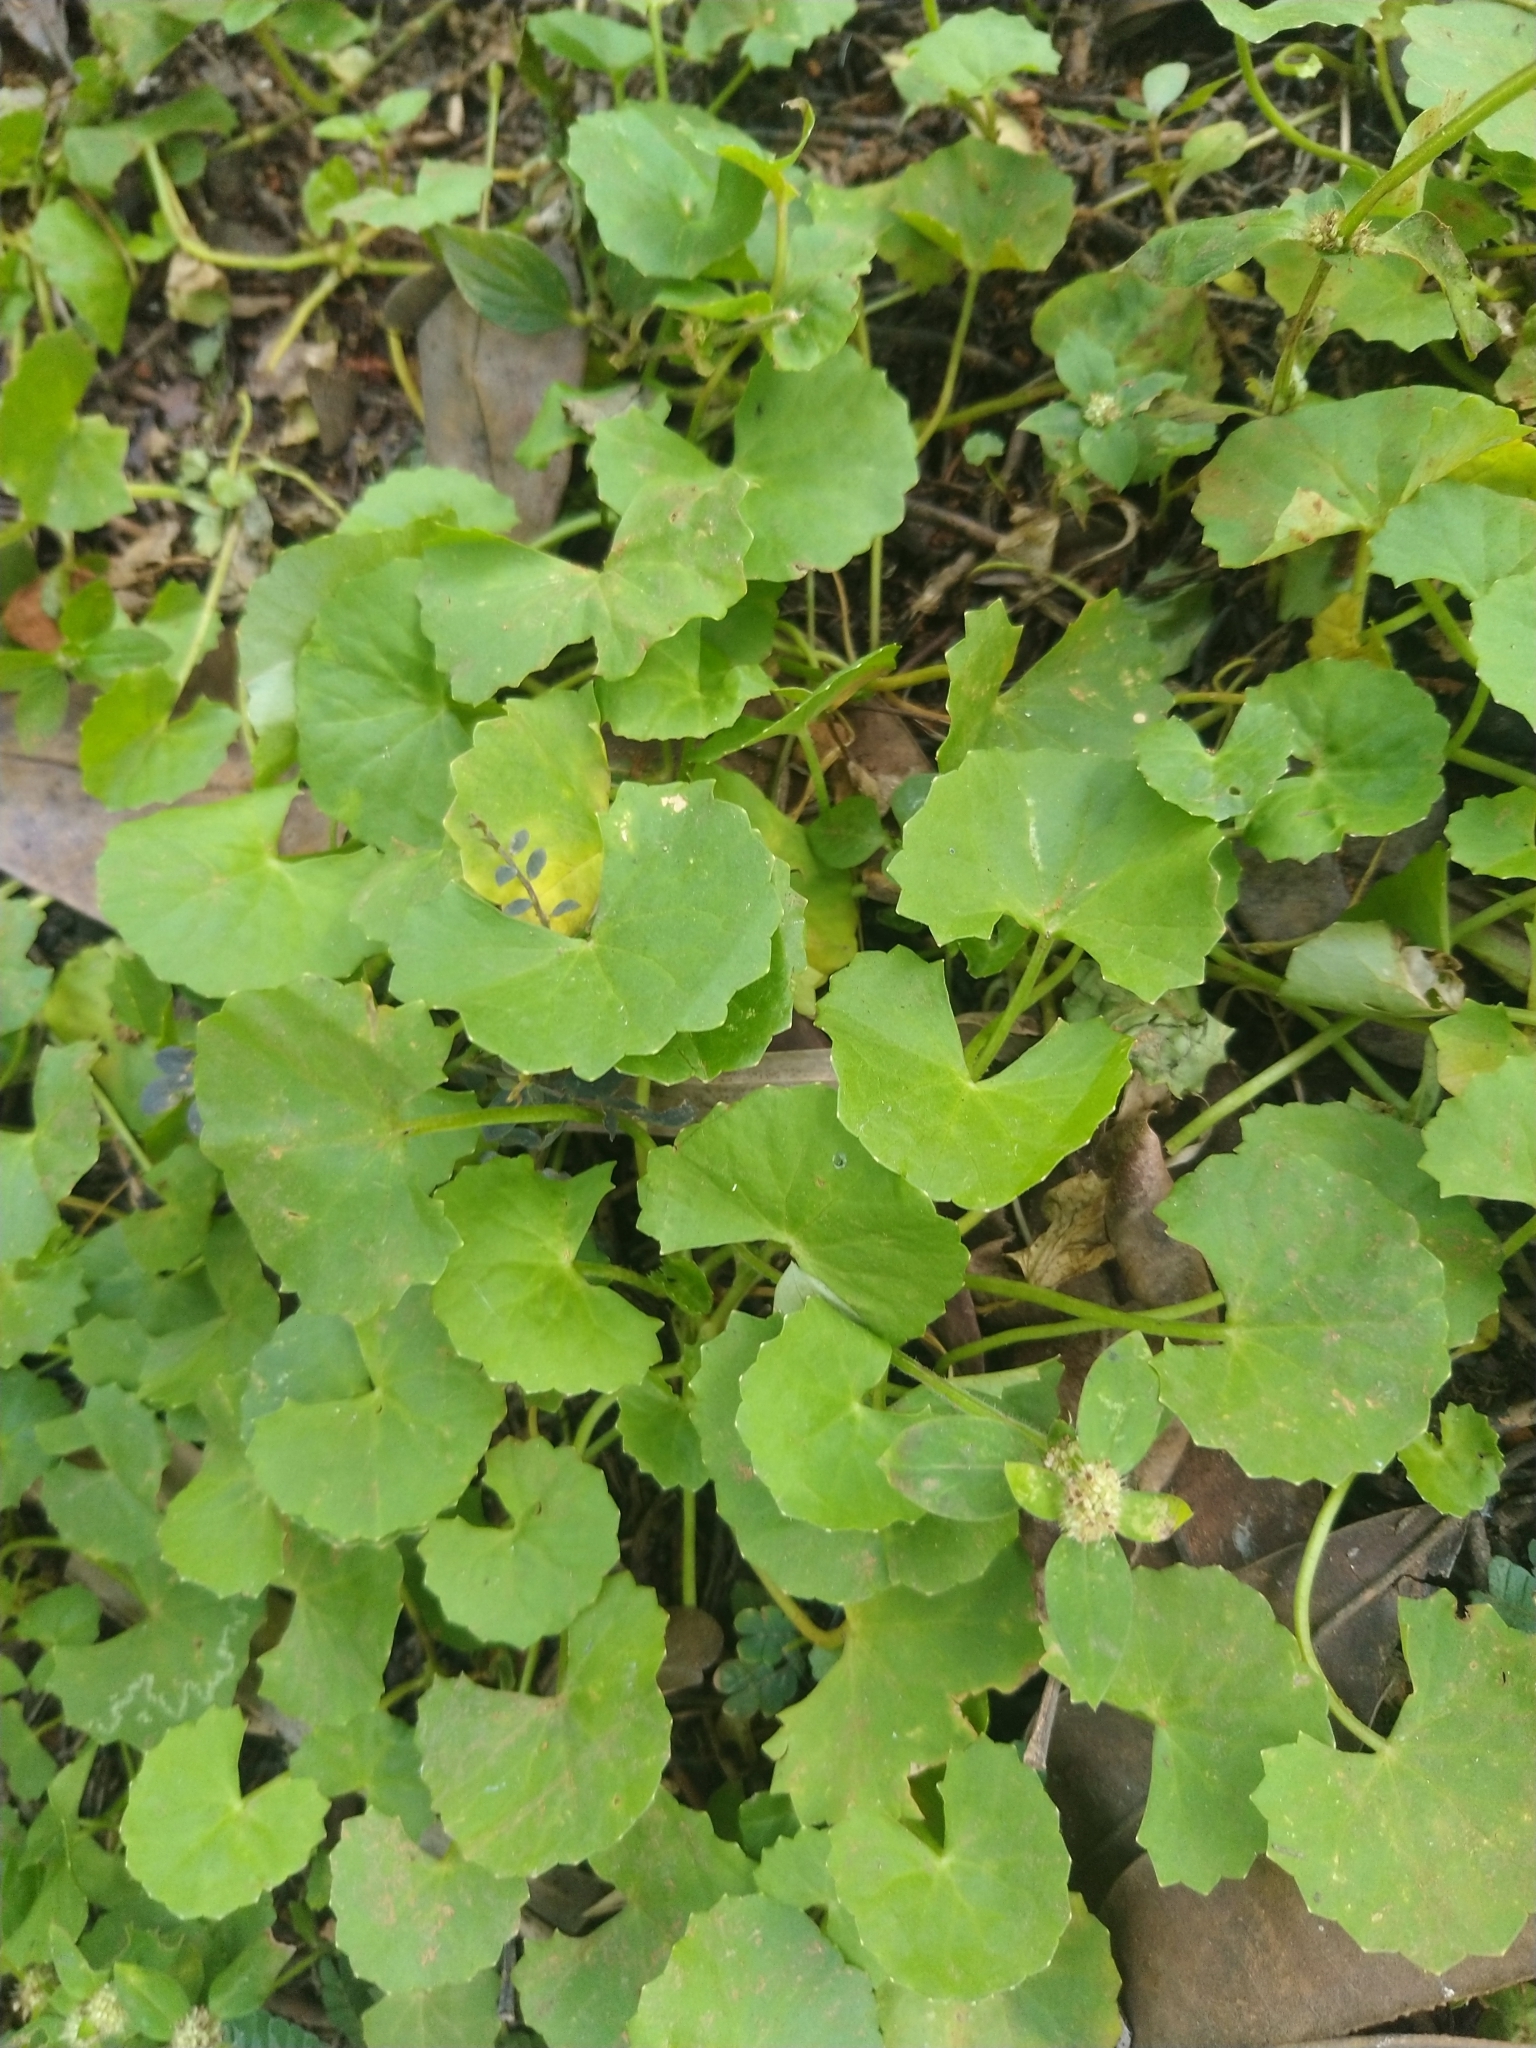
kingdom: Plantae
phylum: Tracheophyta
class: Magnoliopsida
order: Apiales
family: Apiaceae
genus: Centella
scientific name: Centella asiatica
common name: Spadeleaf
